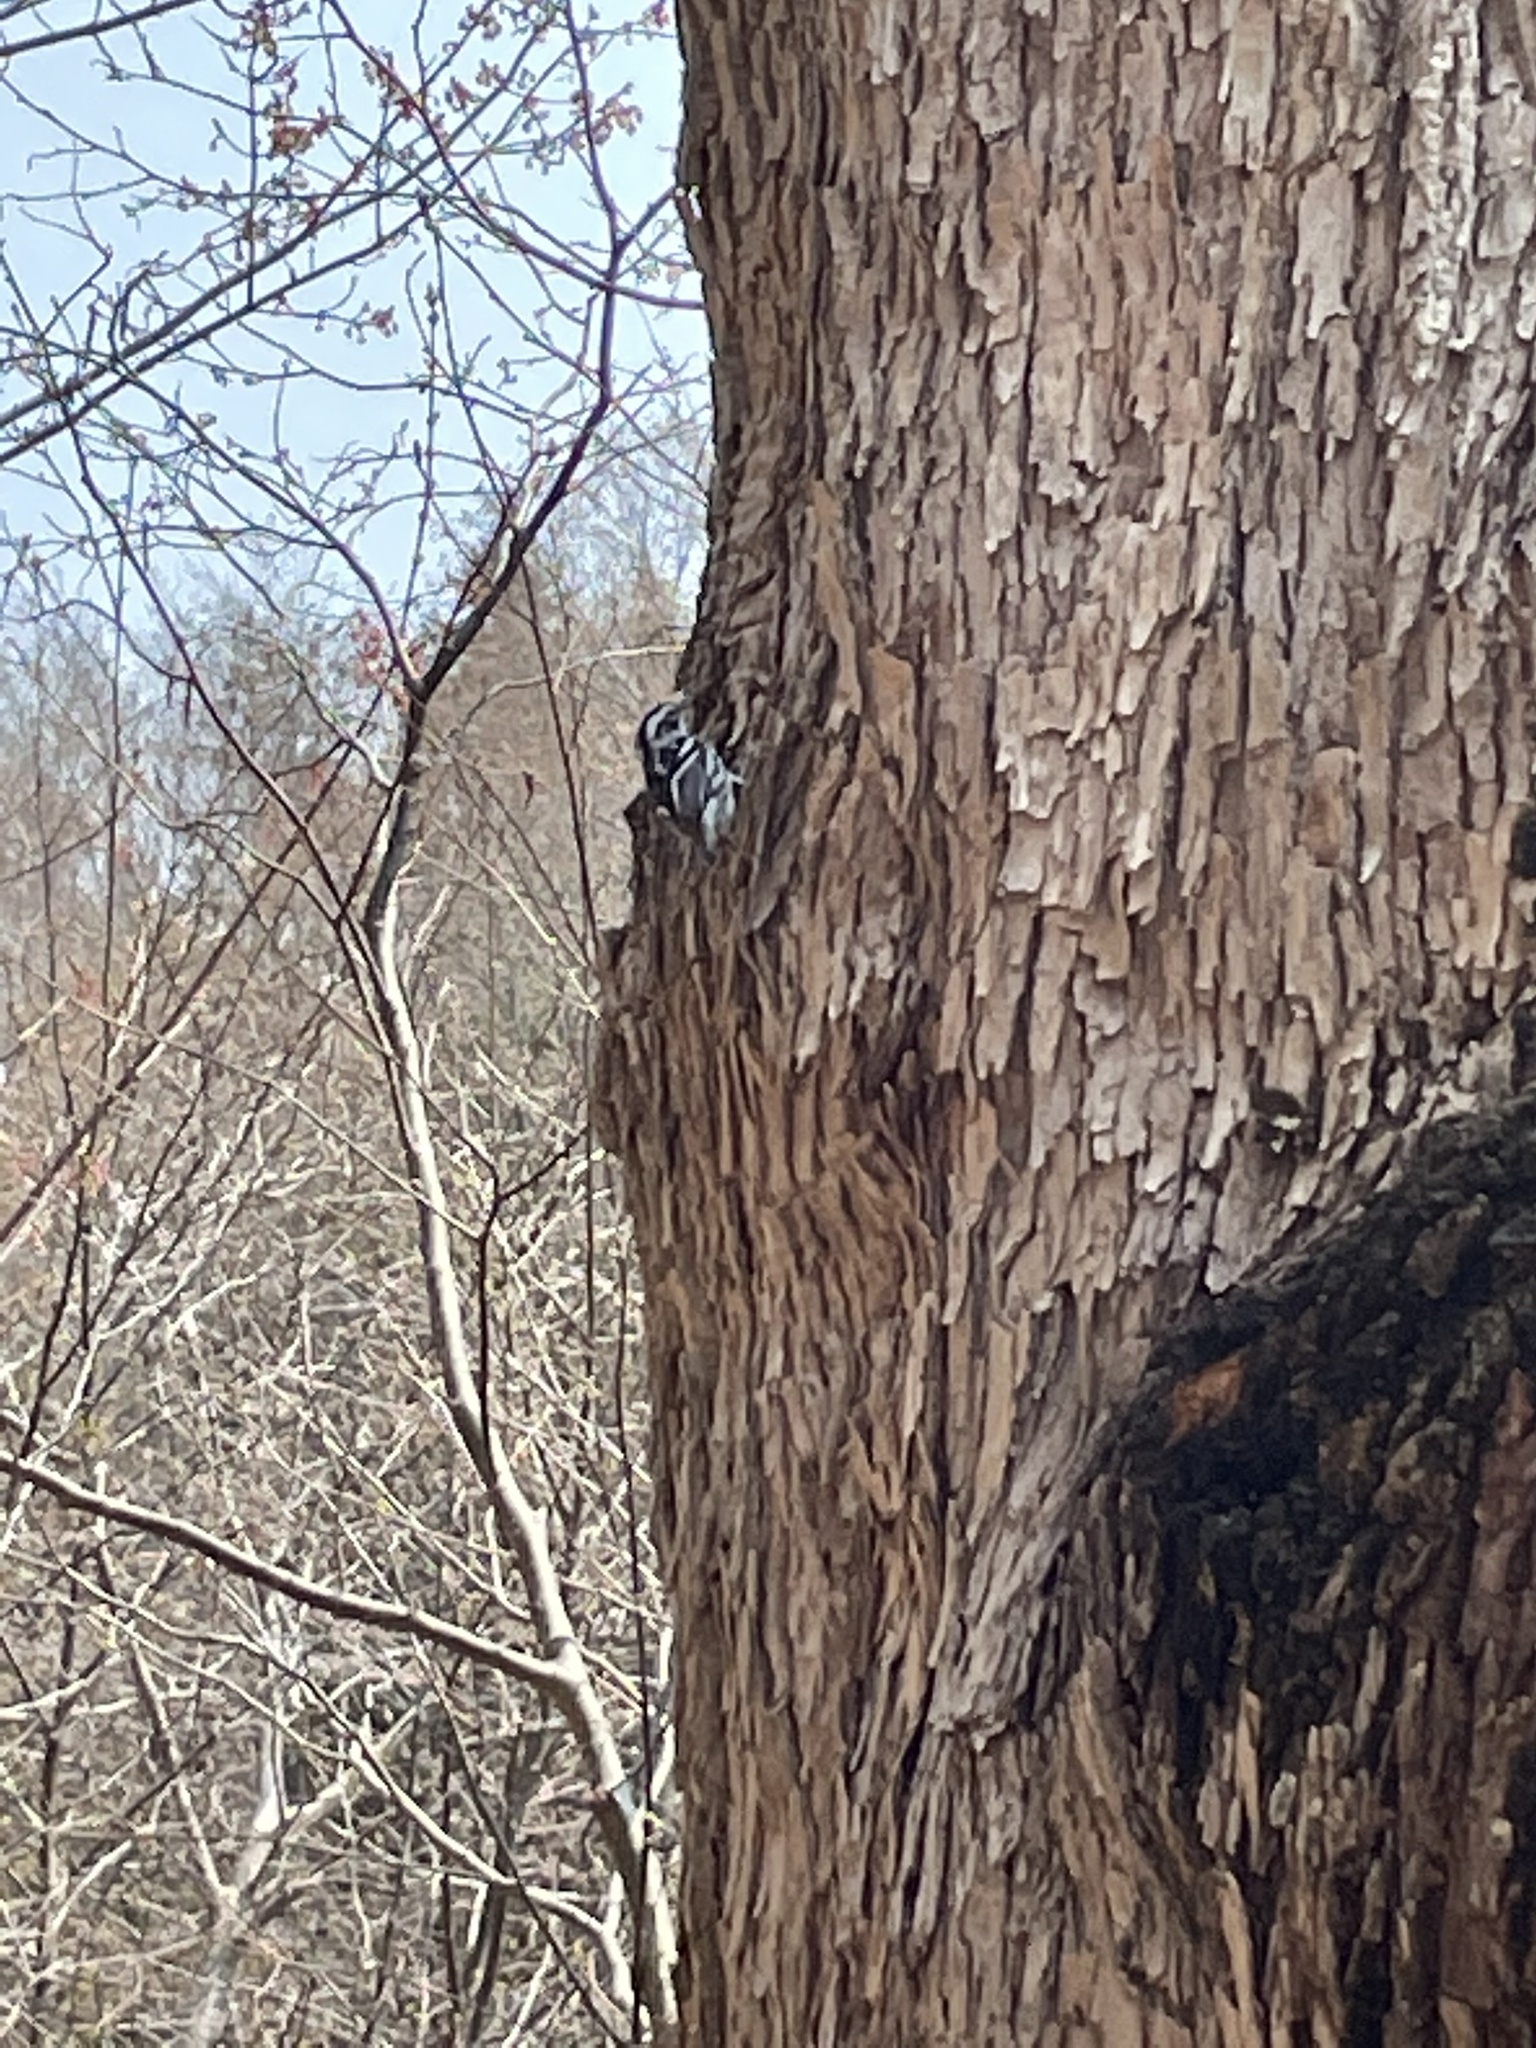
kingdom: Animalia
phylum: Chordata
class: Aves
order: Passeriformes
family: Parulidae
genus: Mniotilta
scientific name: Mniotilta varia
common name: Black-and-white warbler
